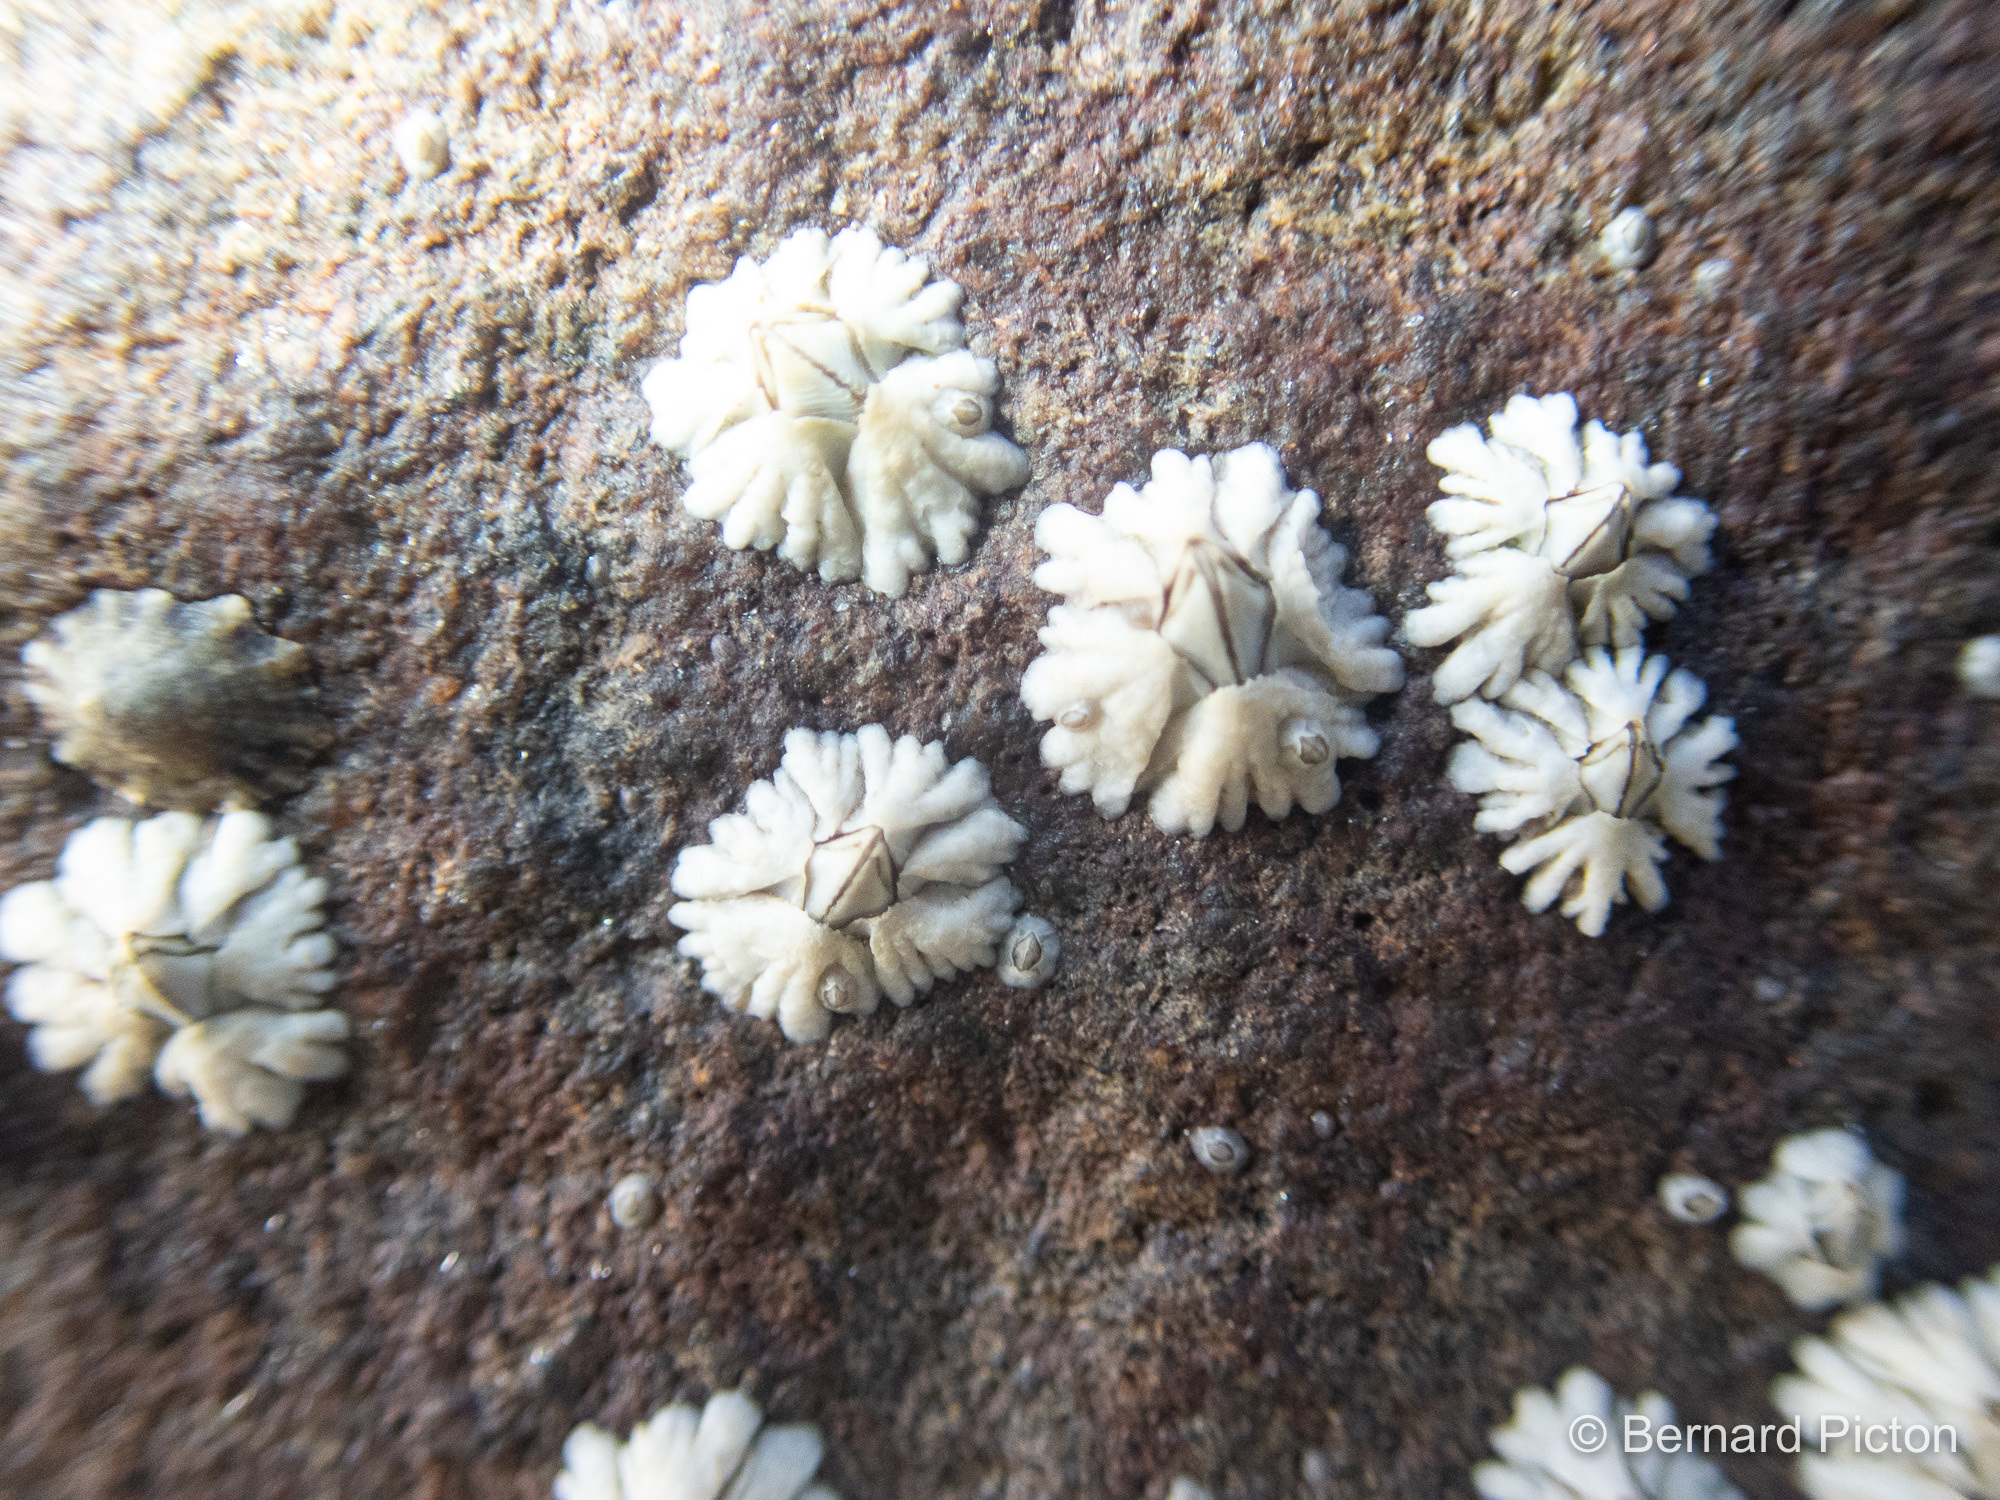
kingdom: Animalia
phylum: Arthropoda
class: Maxillopoda
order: Sessilia
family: Archaeobalanidae
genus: Semibalanus
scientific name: Semibalanus balanoides
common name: Acorn barnacle
